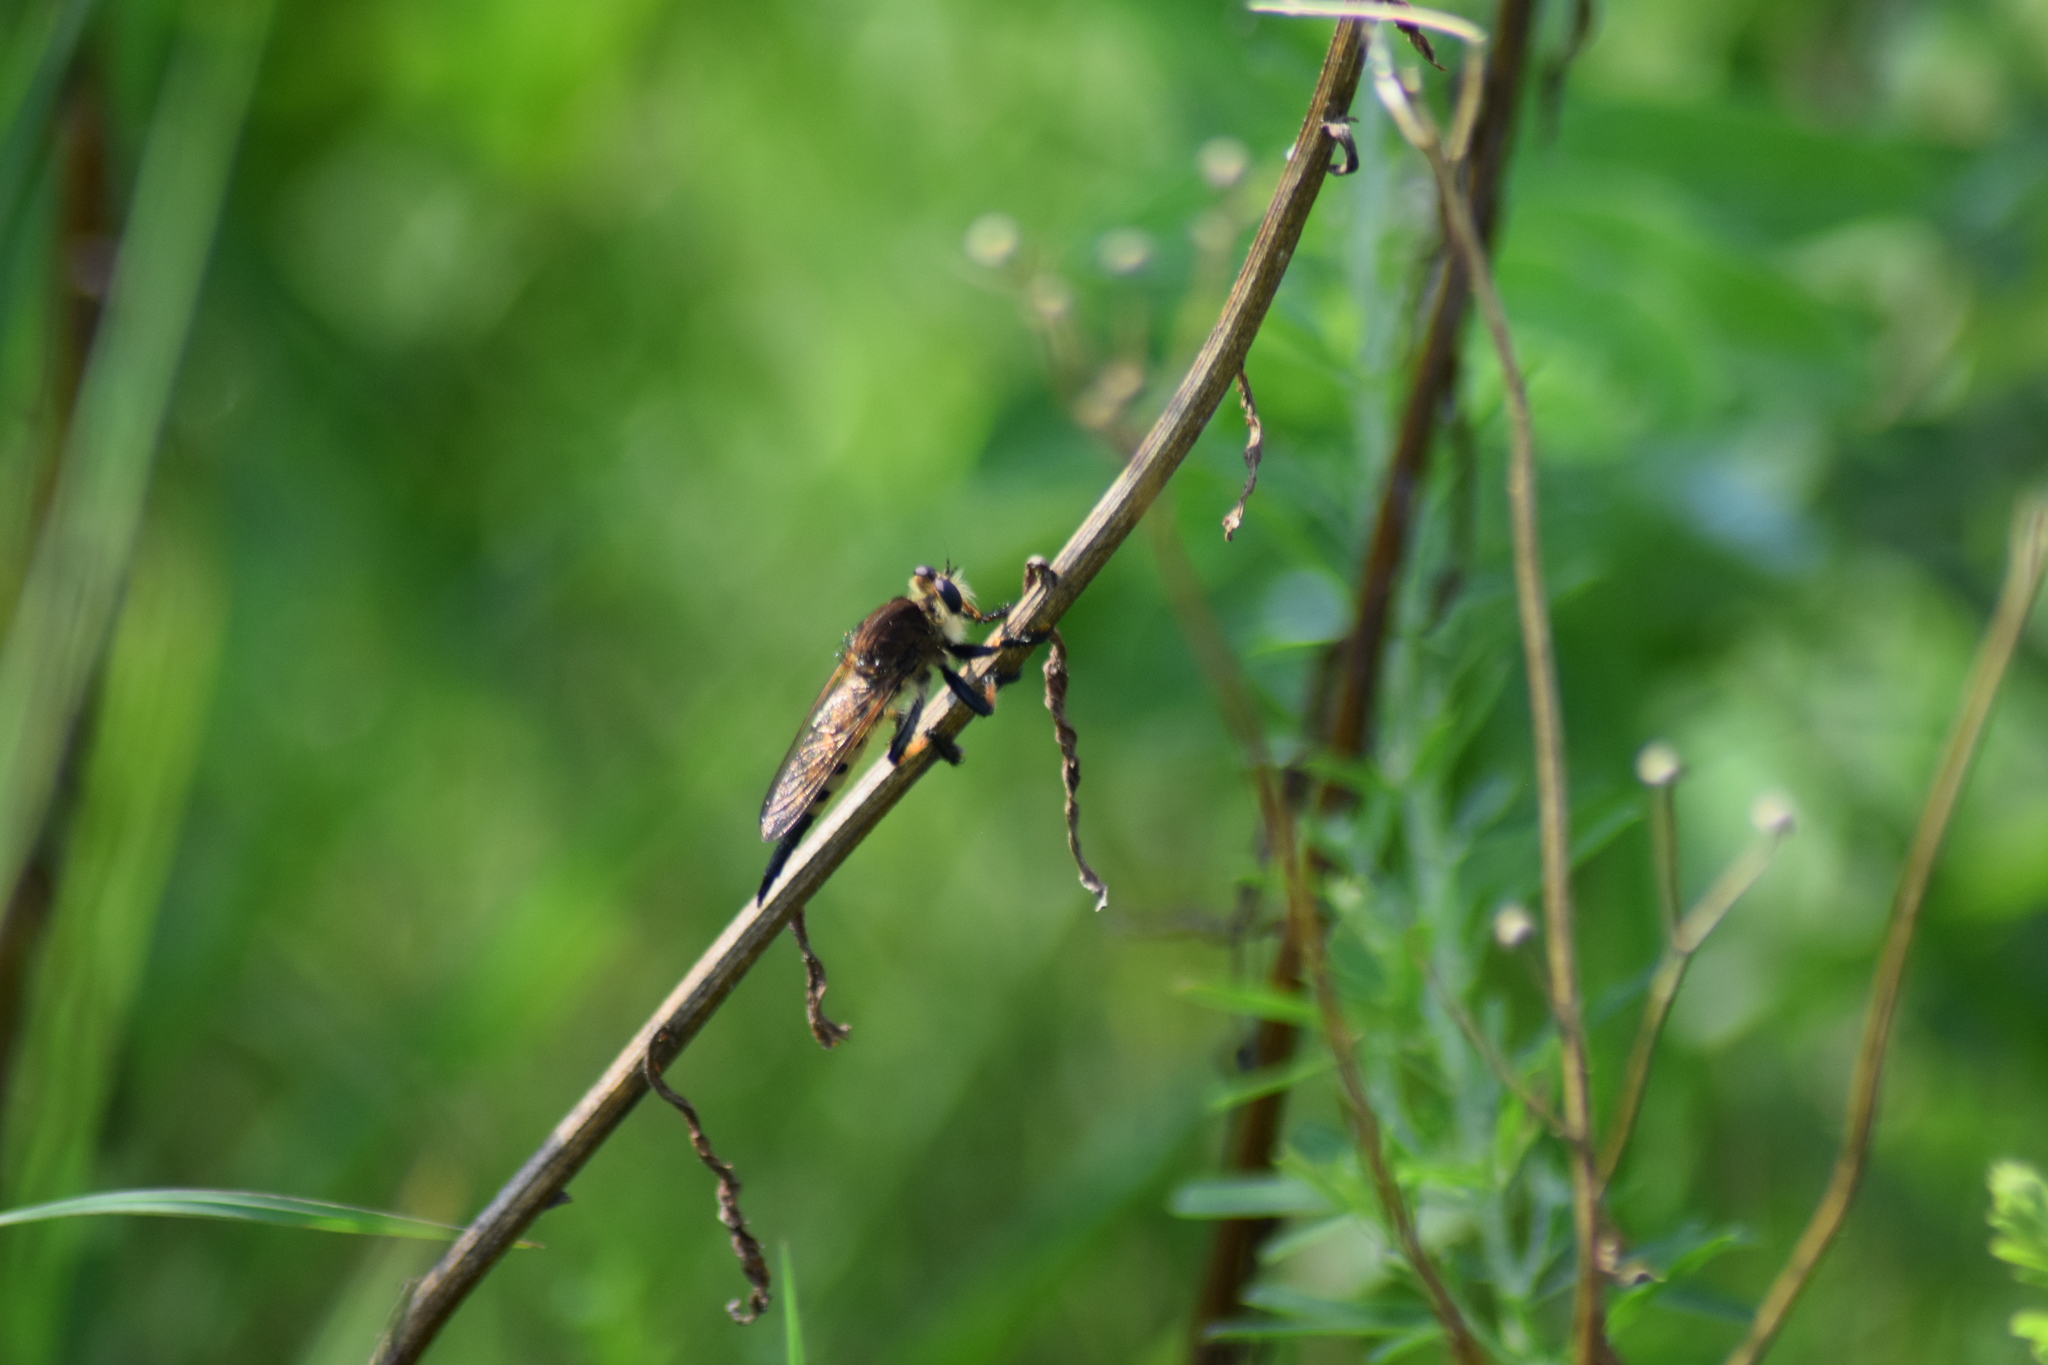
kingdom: Animalia
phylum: Arthropoda
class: Insecta
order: Diptera
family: Asilidae
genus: Promachus
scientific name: Promachus rufipes
